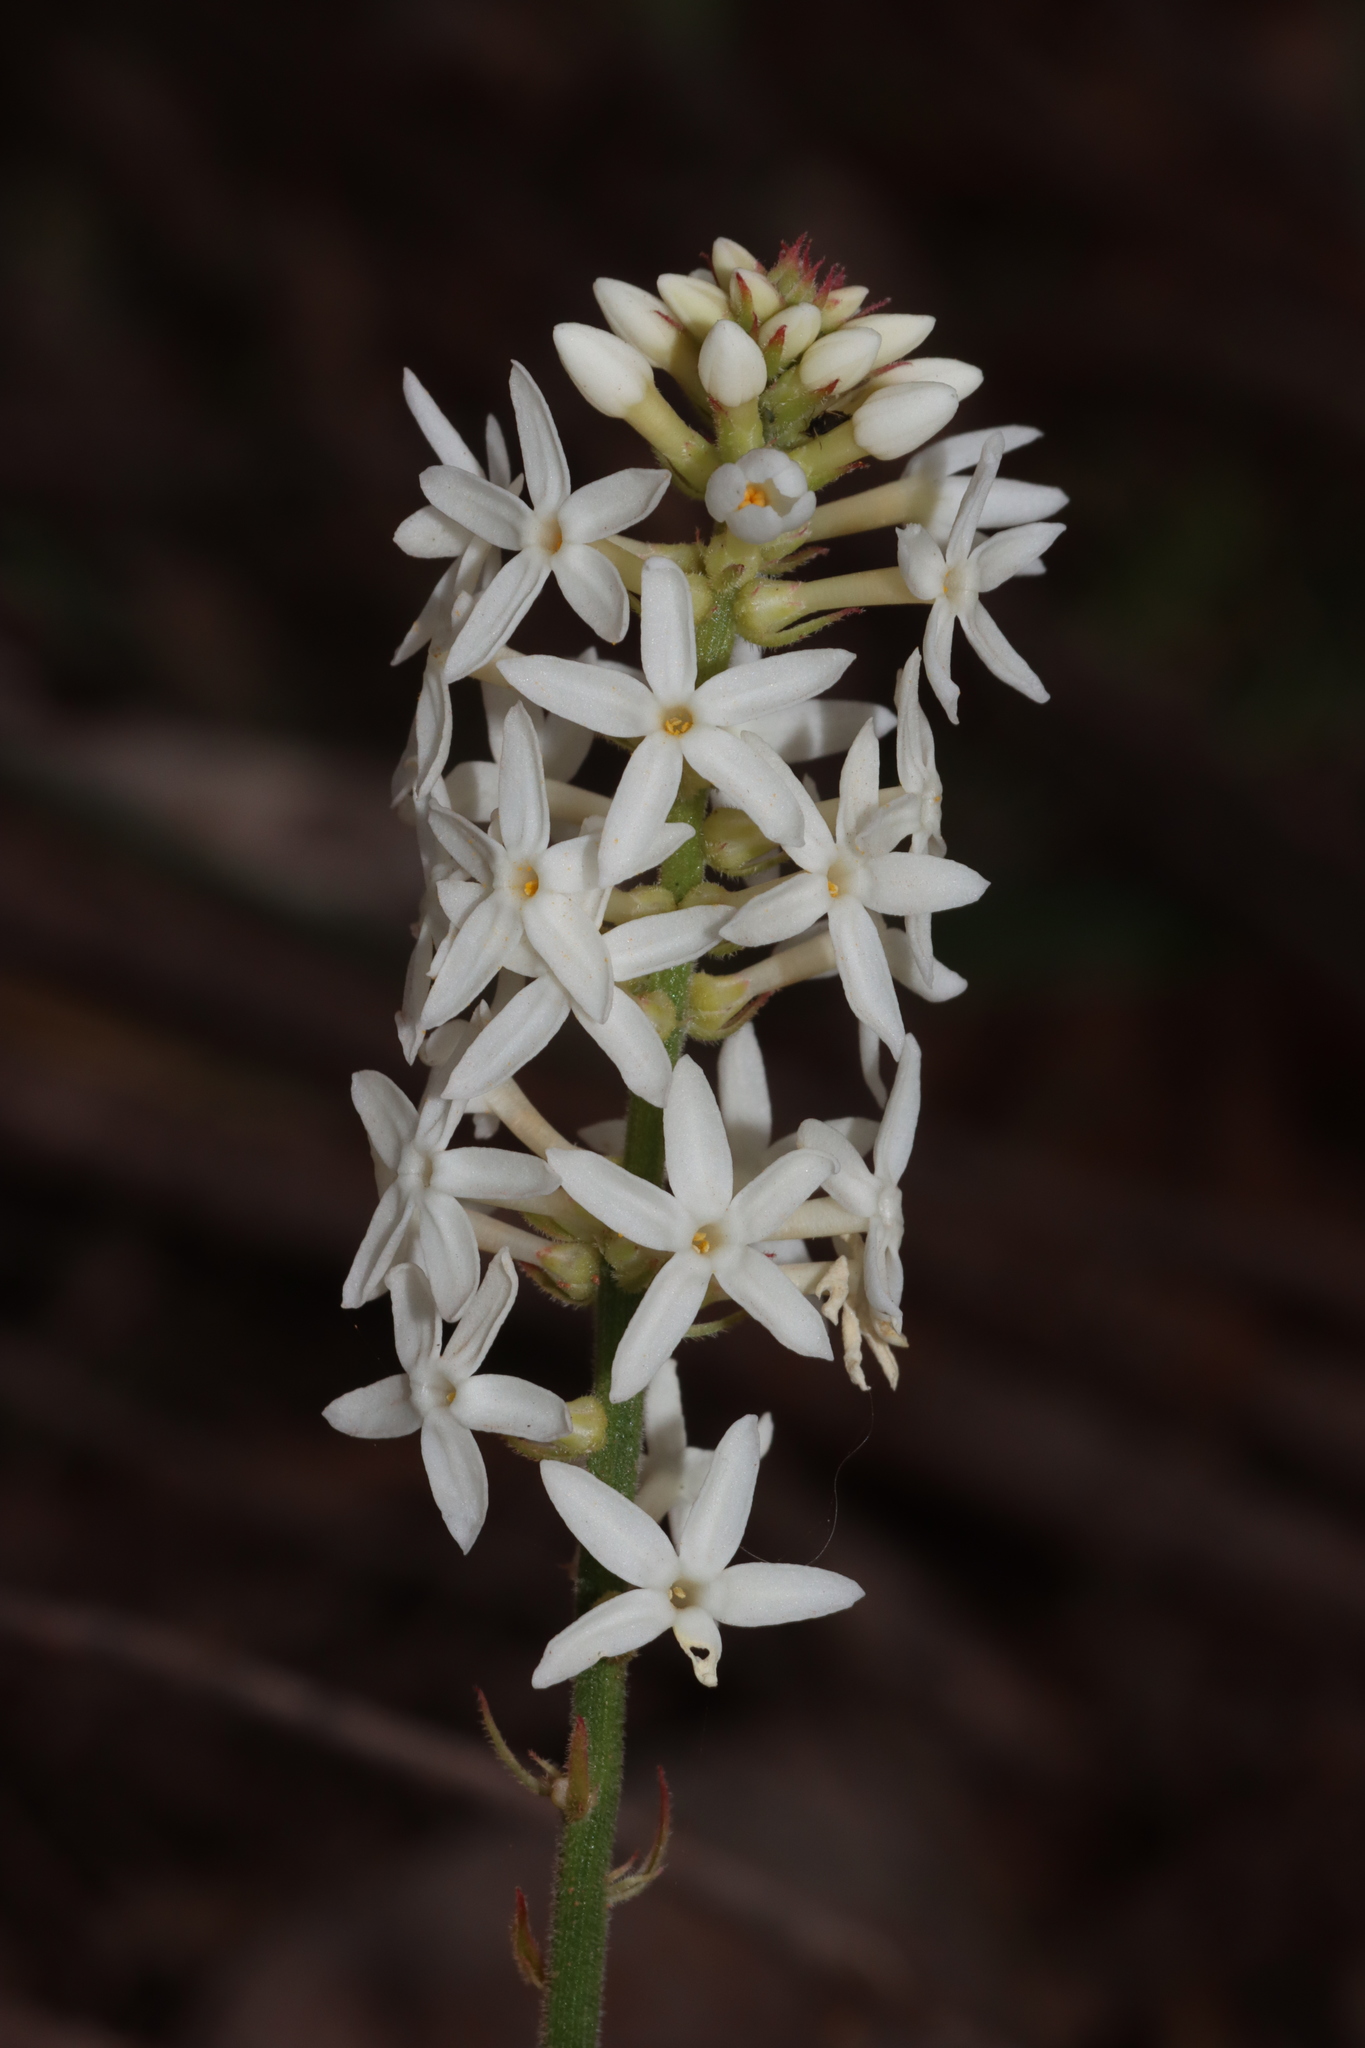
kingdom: Plantae
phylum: Tracheophyta
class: Magnoliopsida
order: Celastrales
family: Celastraceae
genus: Stackhousia
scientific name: Stackhousia monogyna
